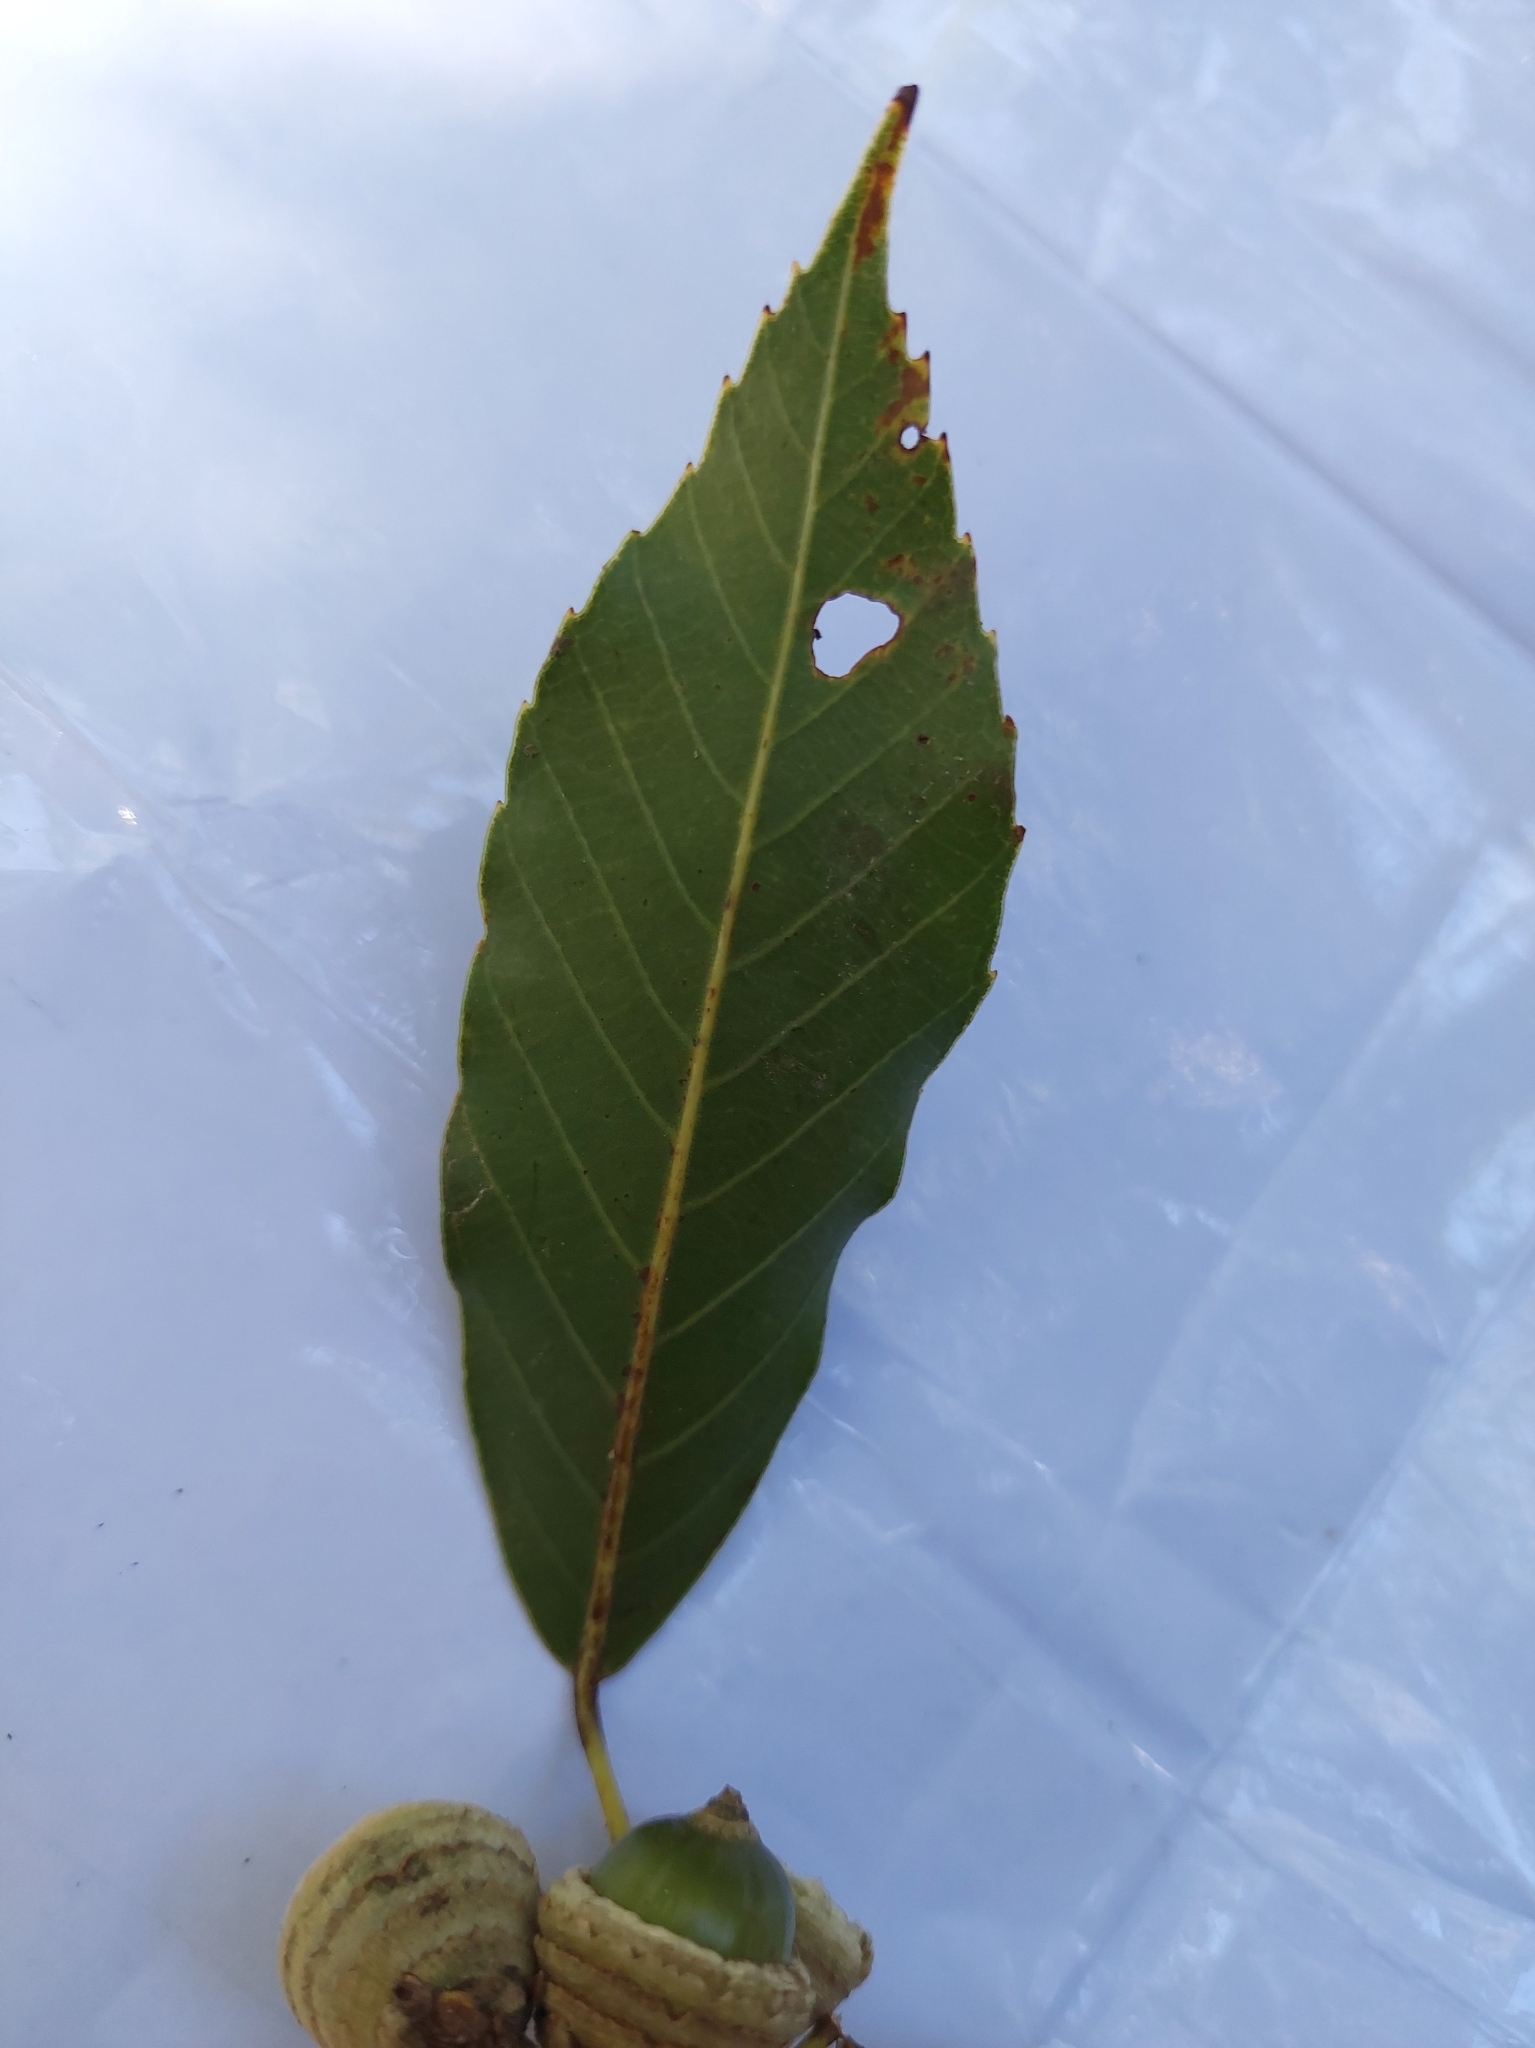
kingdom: Plantae
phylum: Tracheophyta
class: Magnoliopsida
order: Fagales
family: Fagaceae
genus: Quercus
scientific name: Quercus morii
